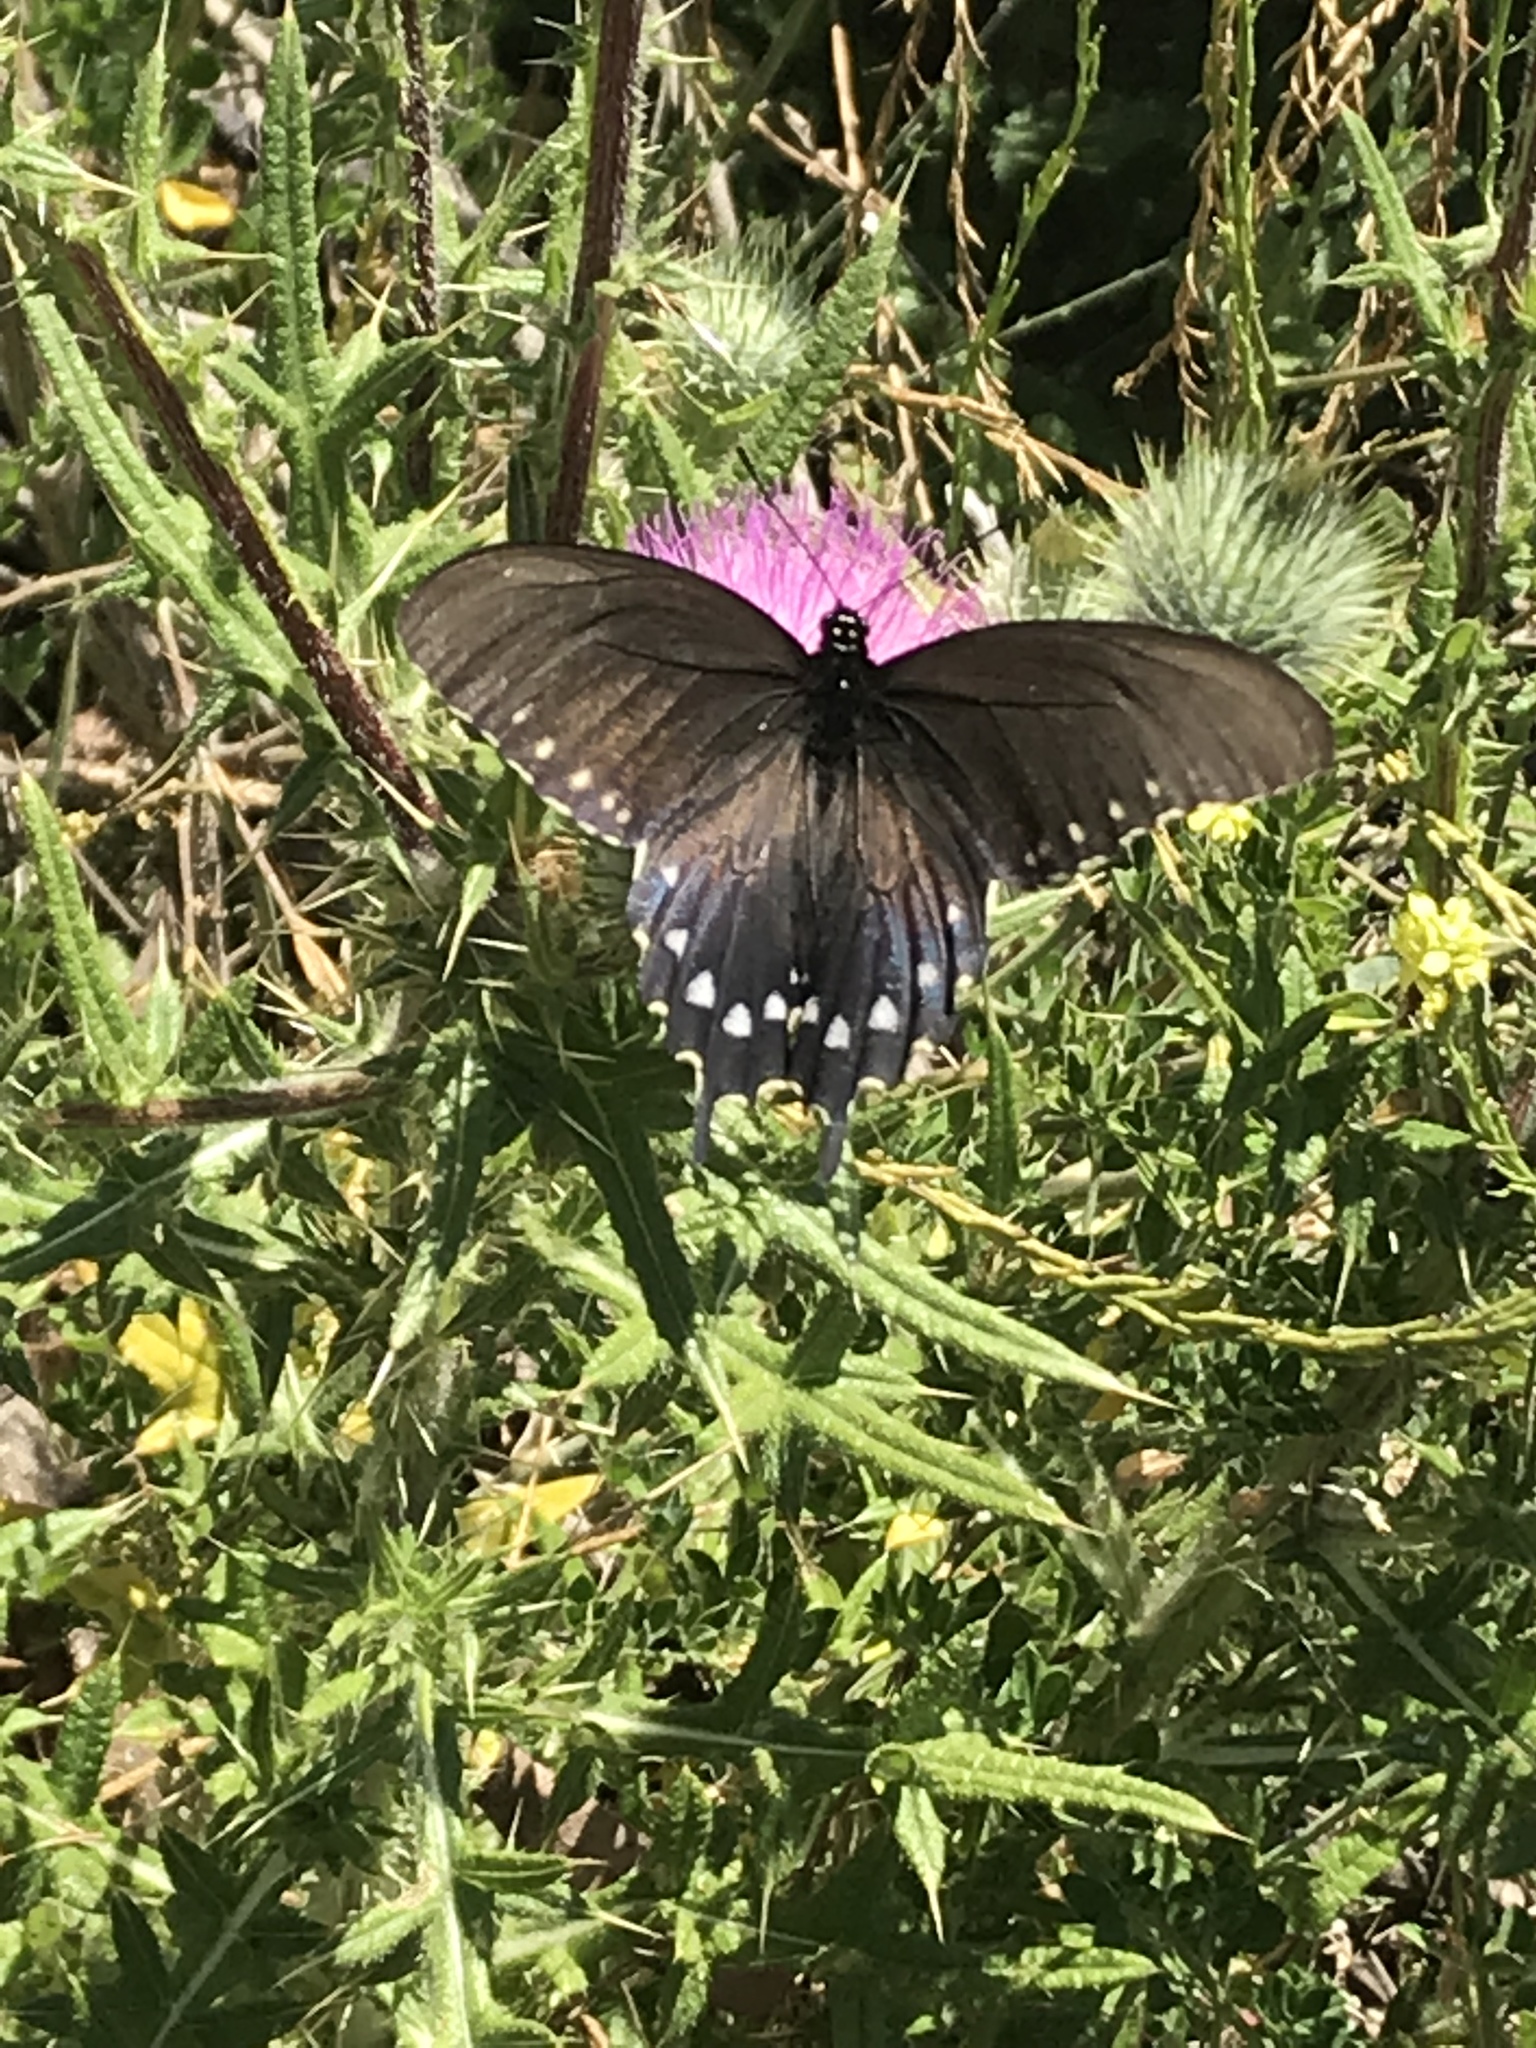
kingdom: Animalia
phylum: Arthropoda
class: Insecta
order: Lepidoptera
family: Papilionidae
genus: Battus
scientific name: Battus philenor
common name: Pipevine swallowtail
